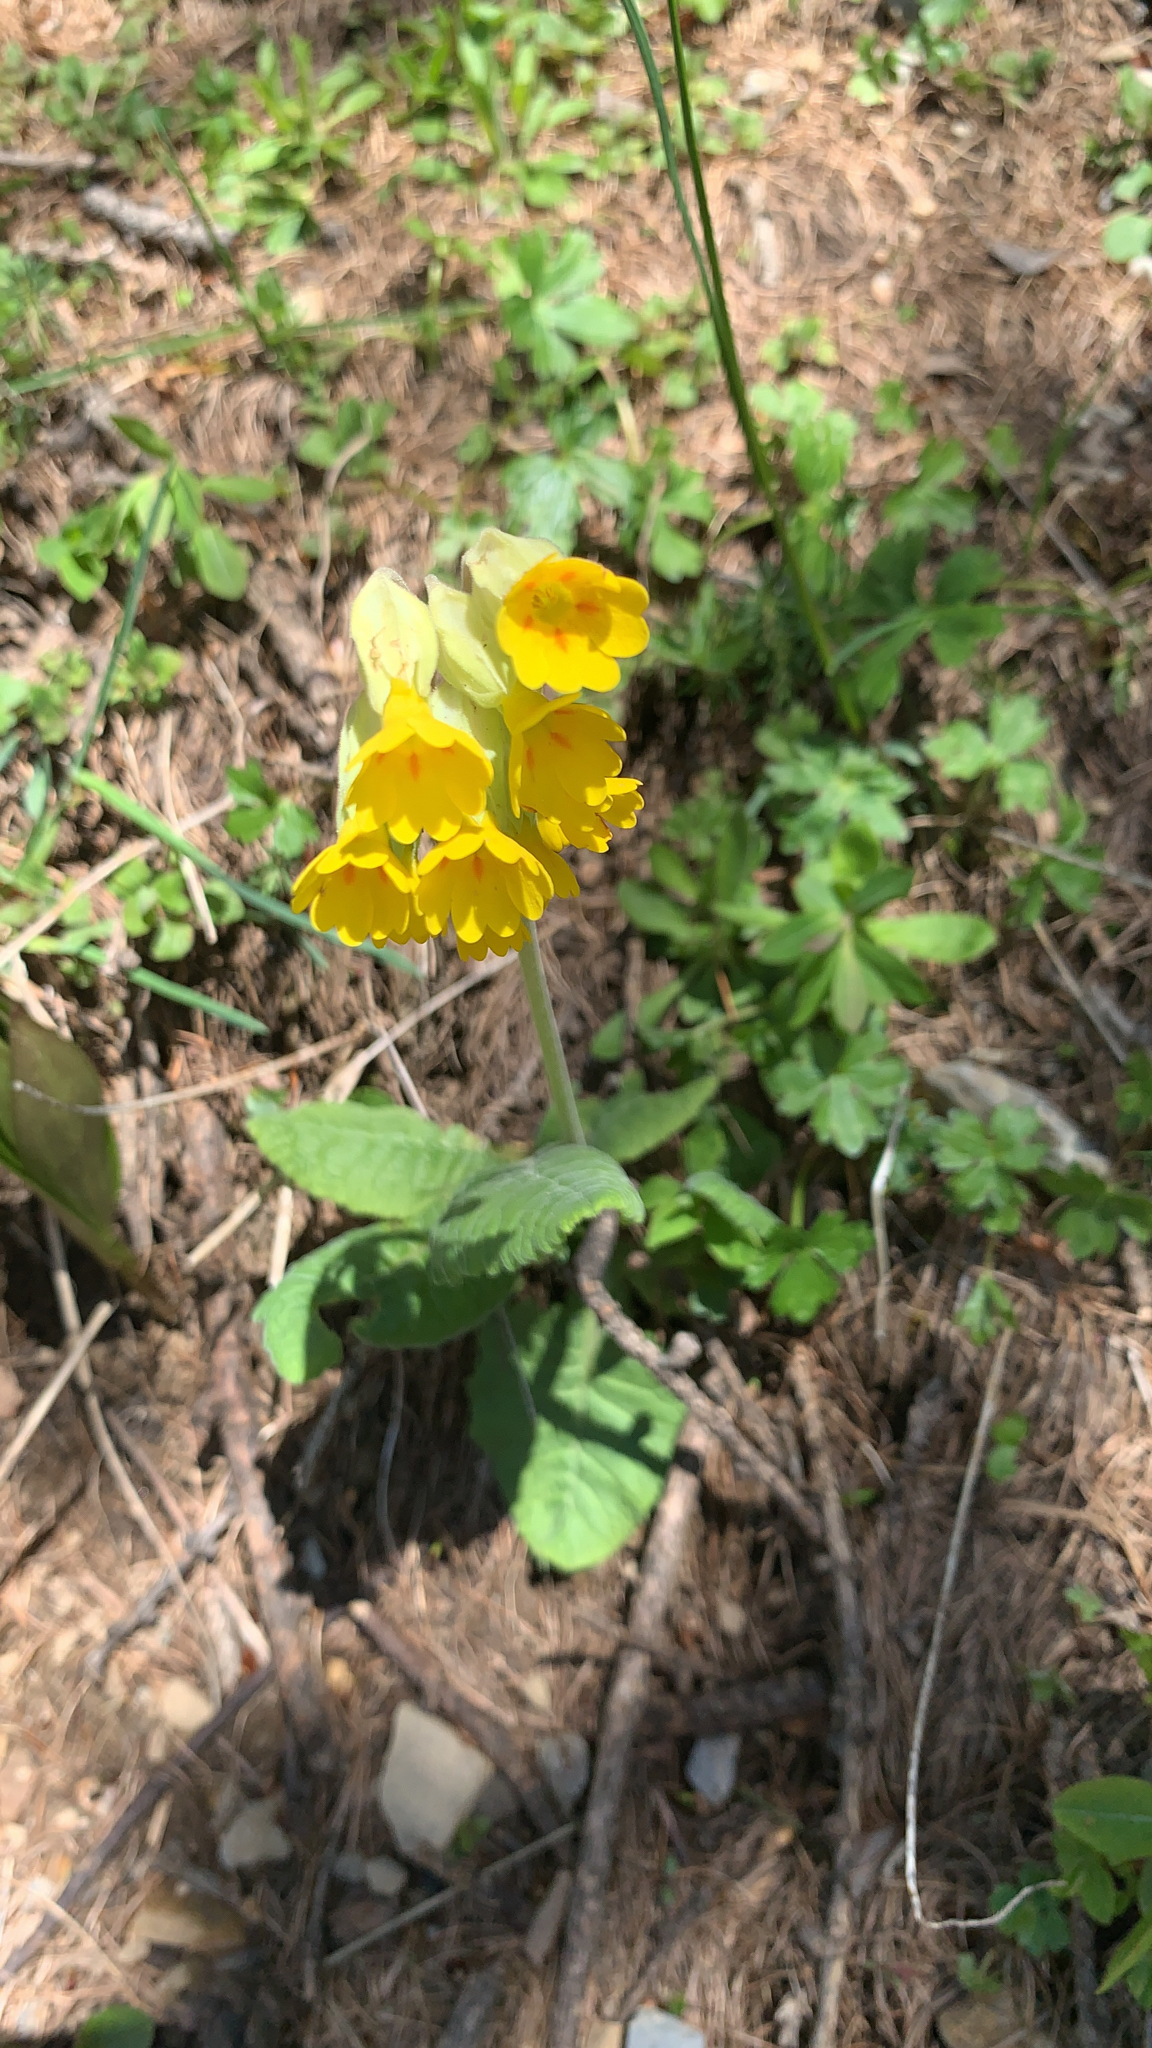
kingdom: Plantae
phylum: Tracheophyta
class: Magnoliopsida
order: Ericales
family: Primulaceae
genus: Primula
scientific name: Primula veris
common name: Cowslip
